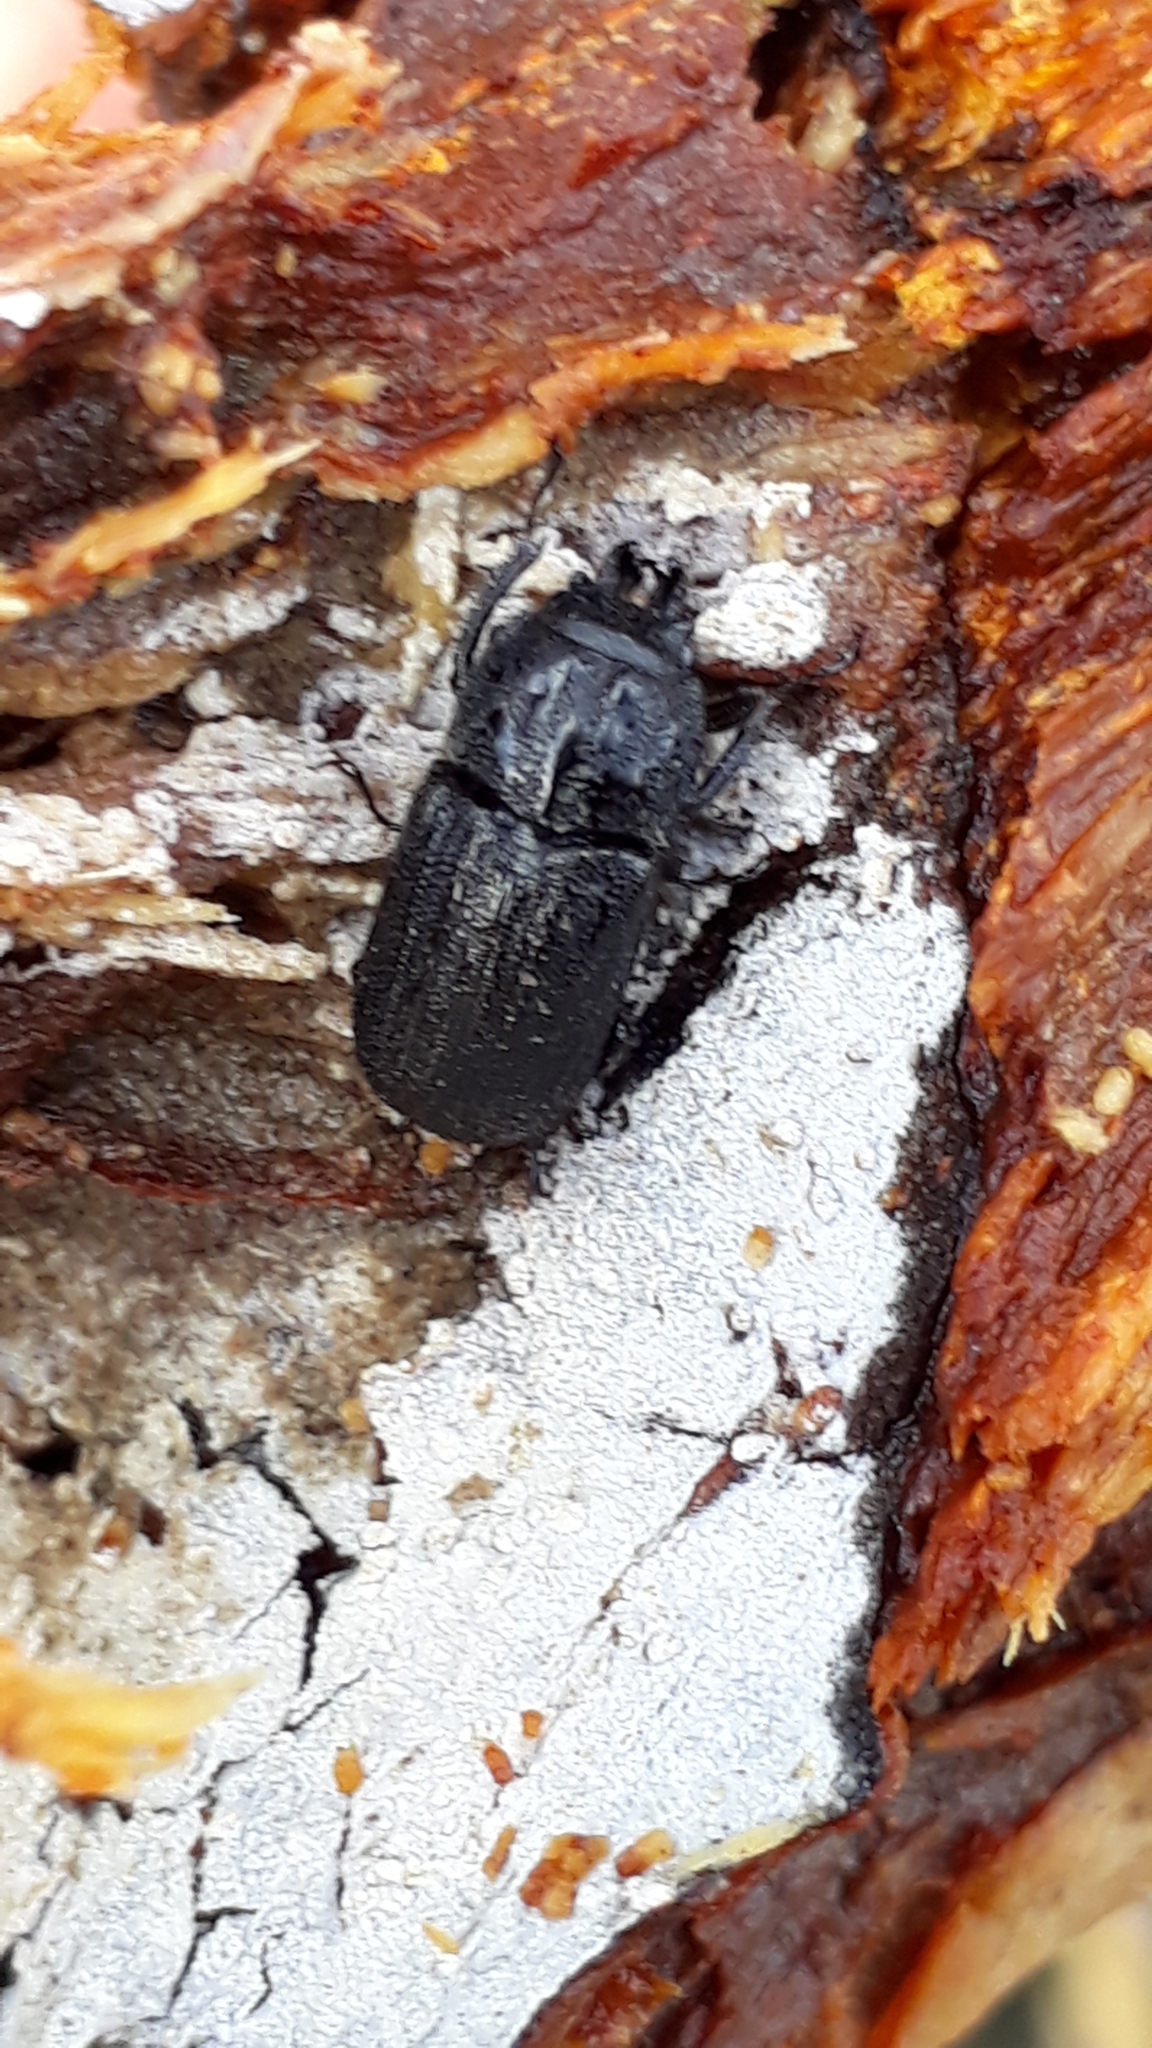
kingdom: Animalia
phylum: Arthropoda
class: Insecta
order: Coleoptera
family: Lucanidae
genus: Holloceratognathus
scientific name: Holloceratognathus helotoides
